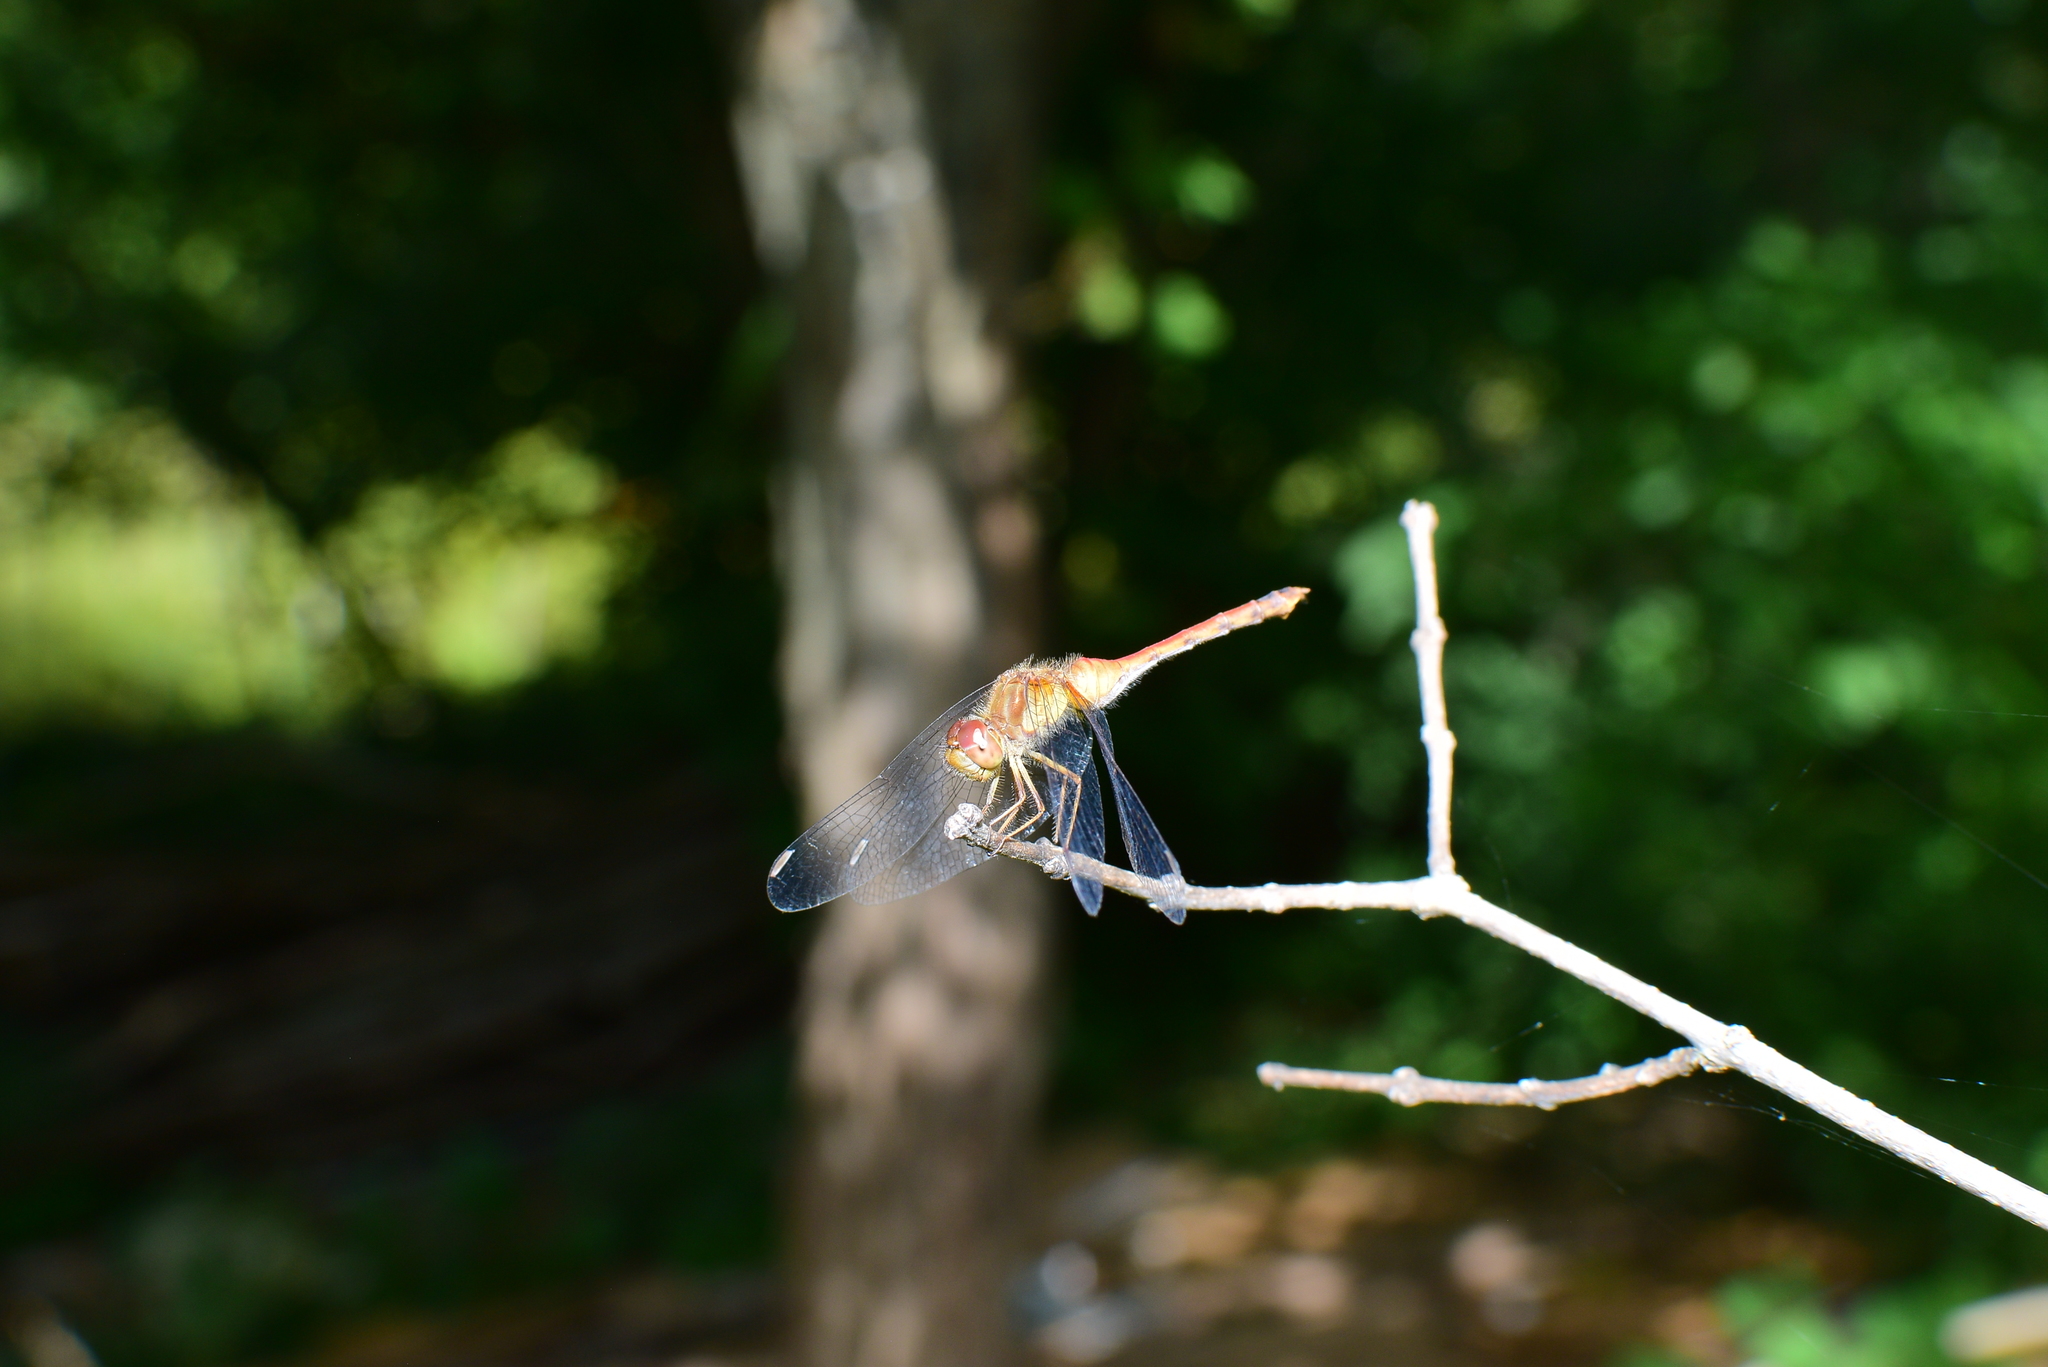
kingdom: Animalia
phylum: Arthropoda
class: Insecta
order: Odonata
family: Libellulidae
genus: Sympetrum
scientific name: Sympetrum vicinum
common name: Autumn meadowhawk
